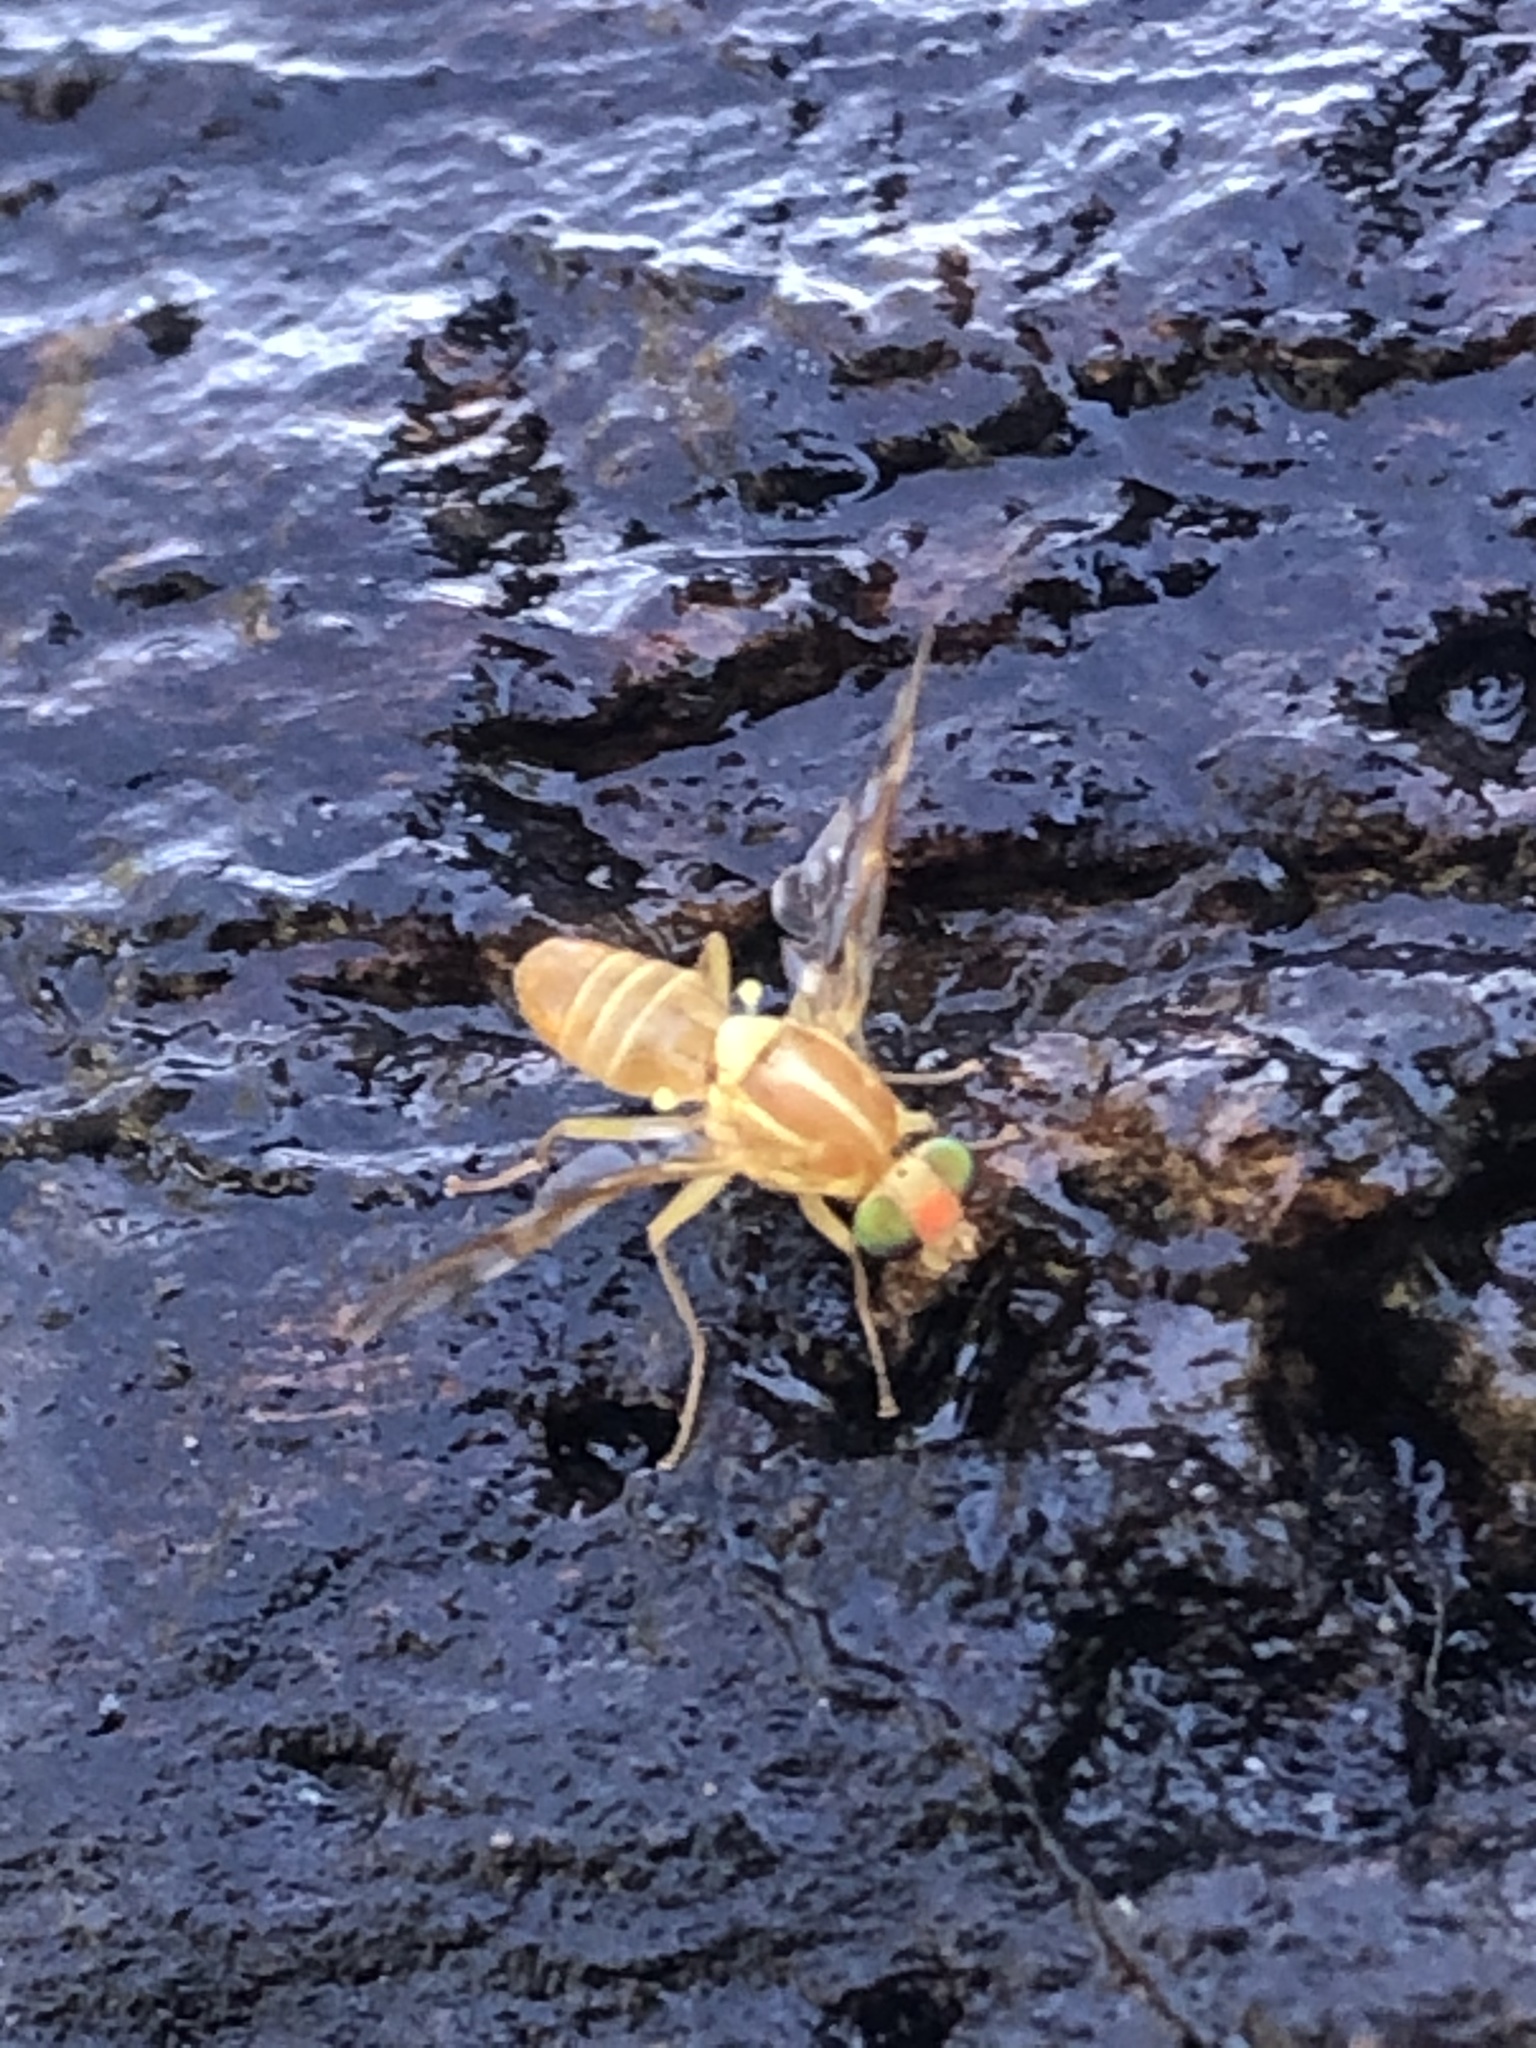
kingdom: Animalia
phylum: Arthropoda
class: Insecta
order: Diptera
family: Tephritidae
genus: Anastrepha
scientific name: Anastrepha ludens
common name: Mexican fruit fly
